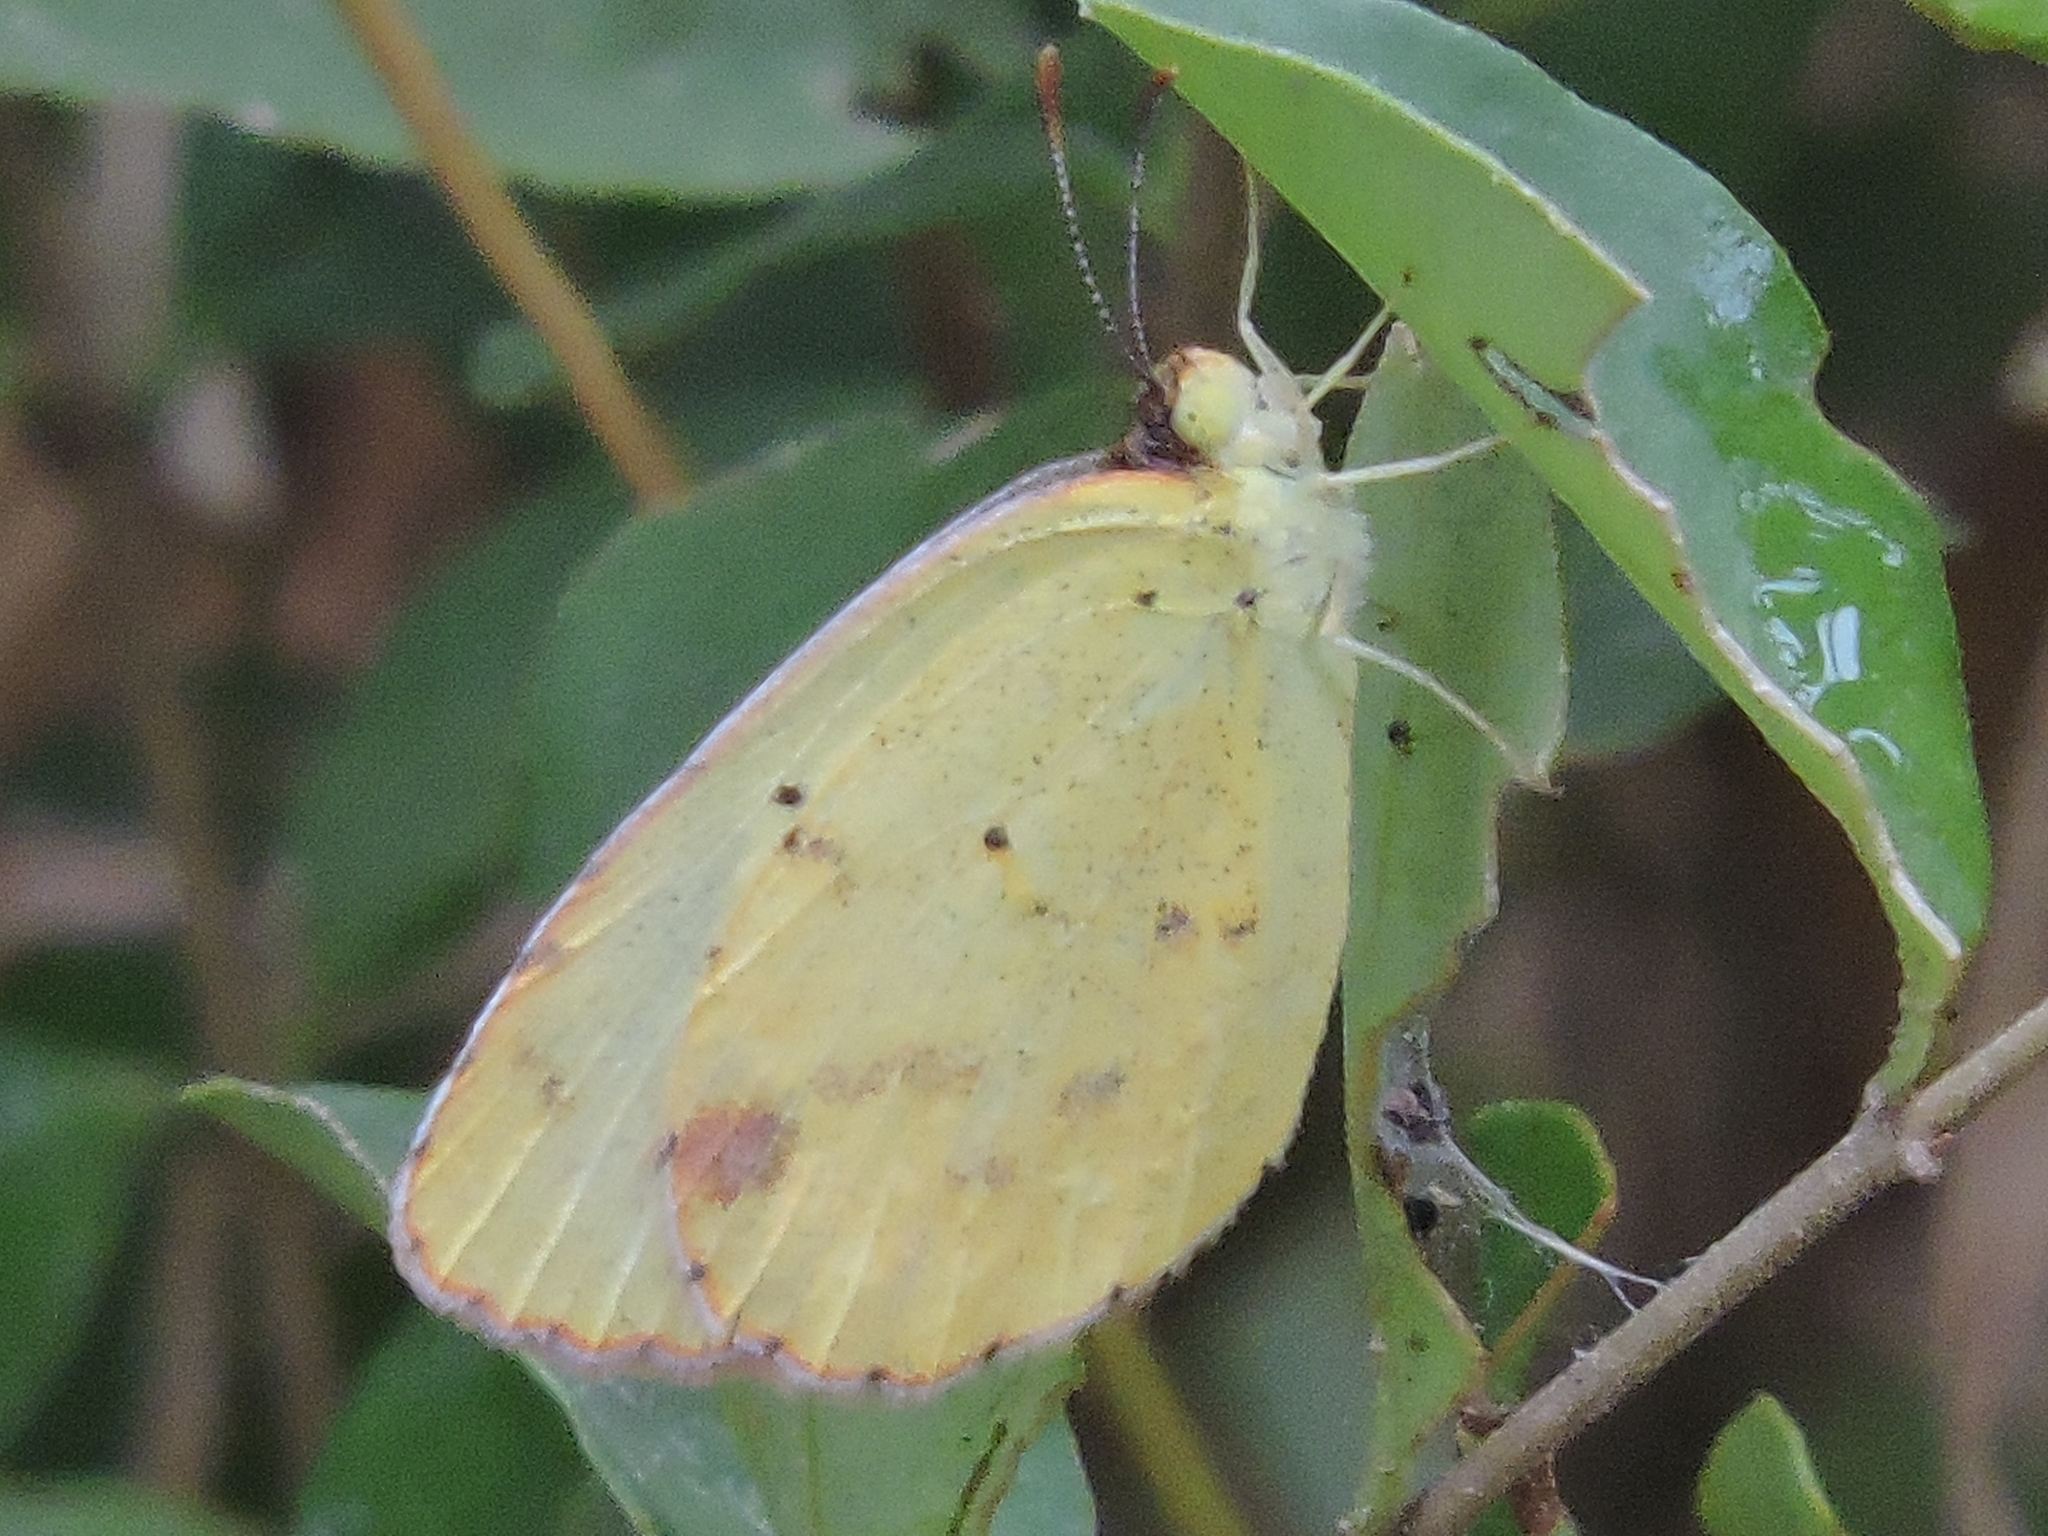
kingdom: Animalia
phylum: Arthropoda
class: Insecta
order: Lepidoptera
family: Pieridae
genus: Pyrisitia
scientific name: Pyrisitia lisa
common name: Little yellow
